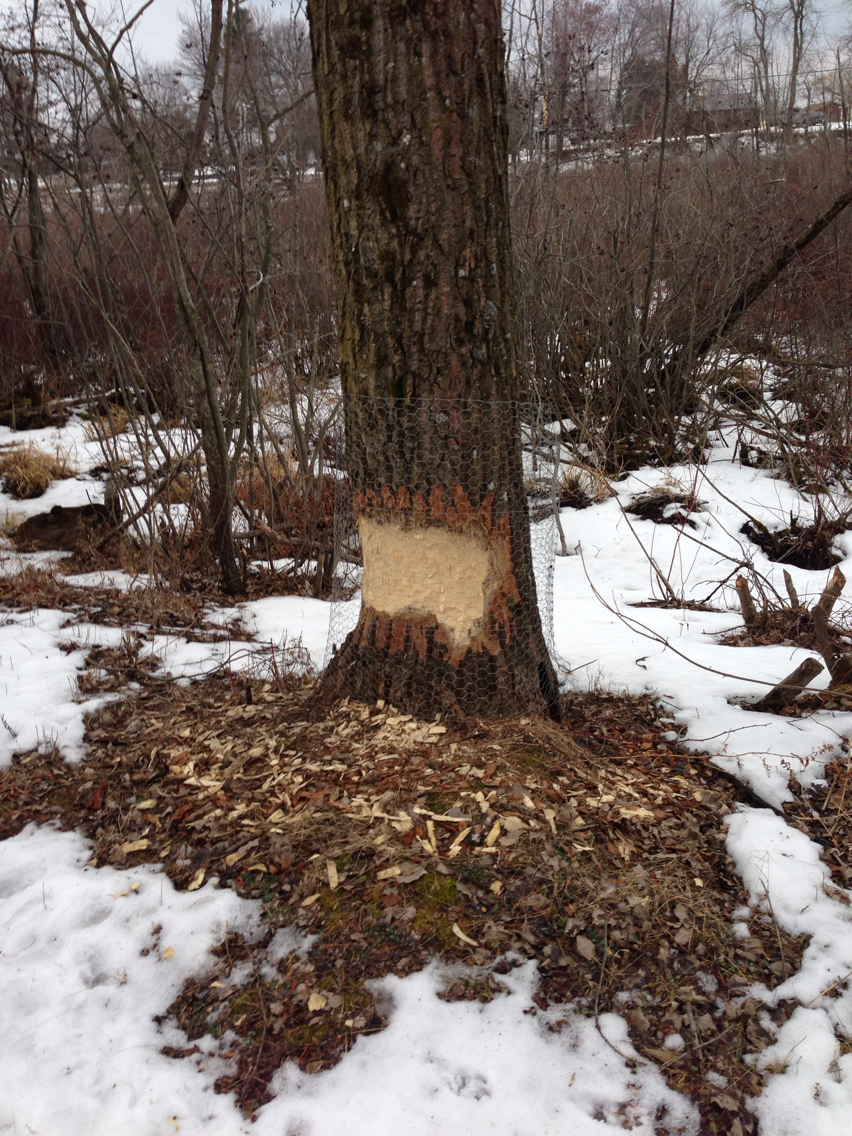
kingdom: Animalia
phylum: Chordata
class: Mammalia
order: Rodentia
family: Castoridae
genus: Castor
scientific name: Castor canadensis
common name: American beaver
